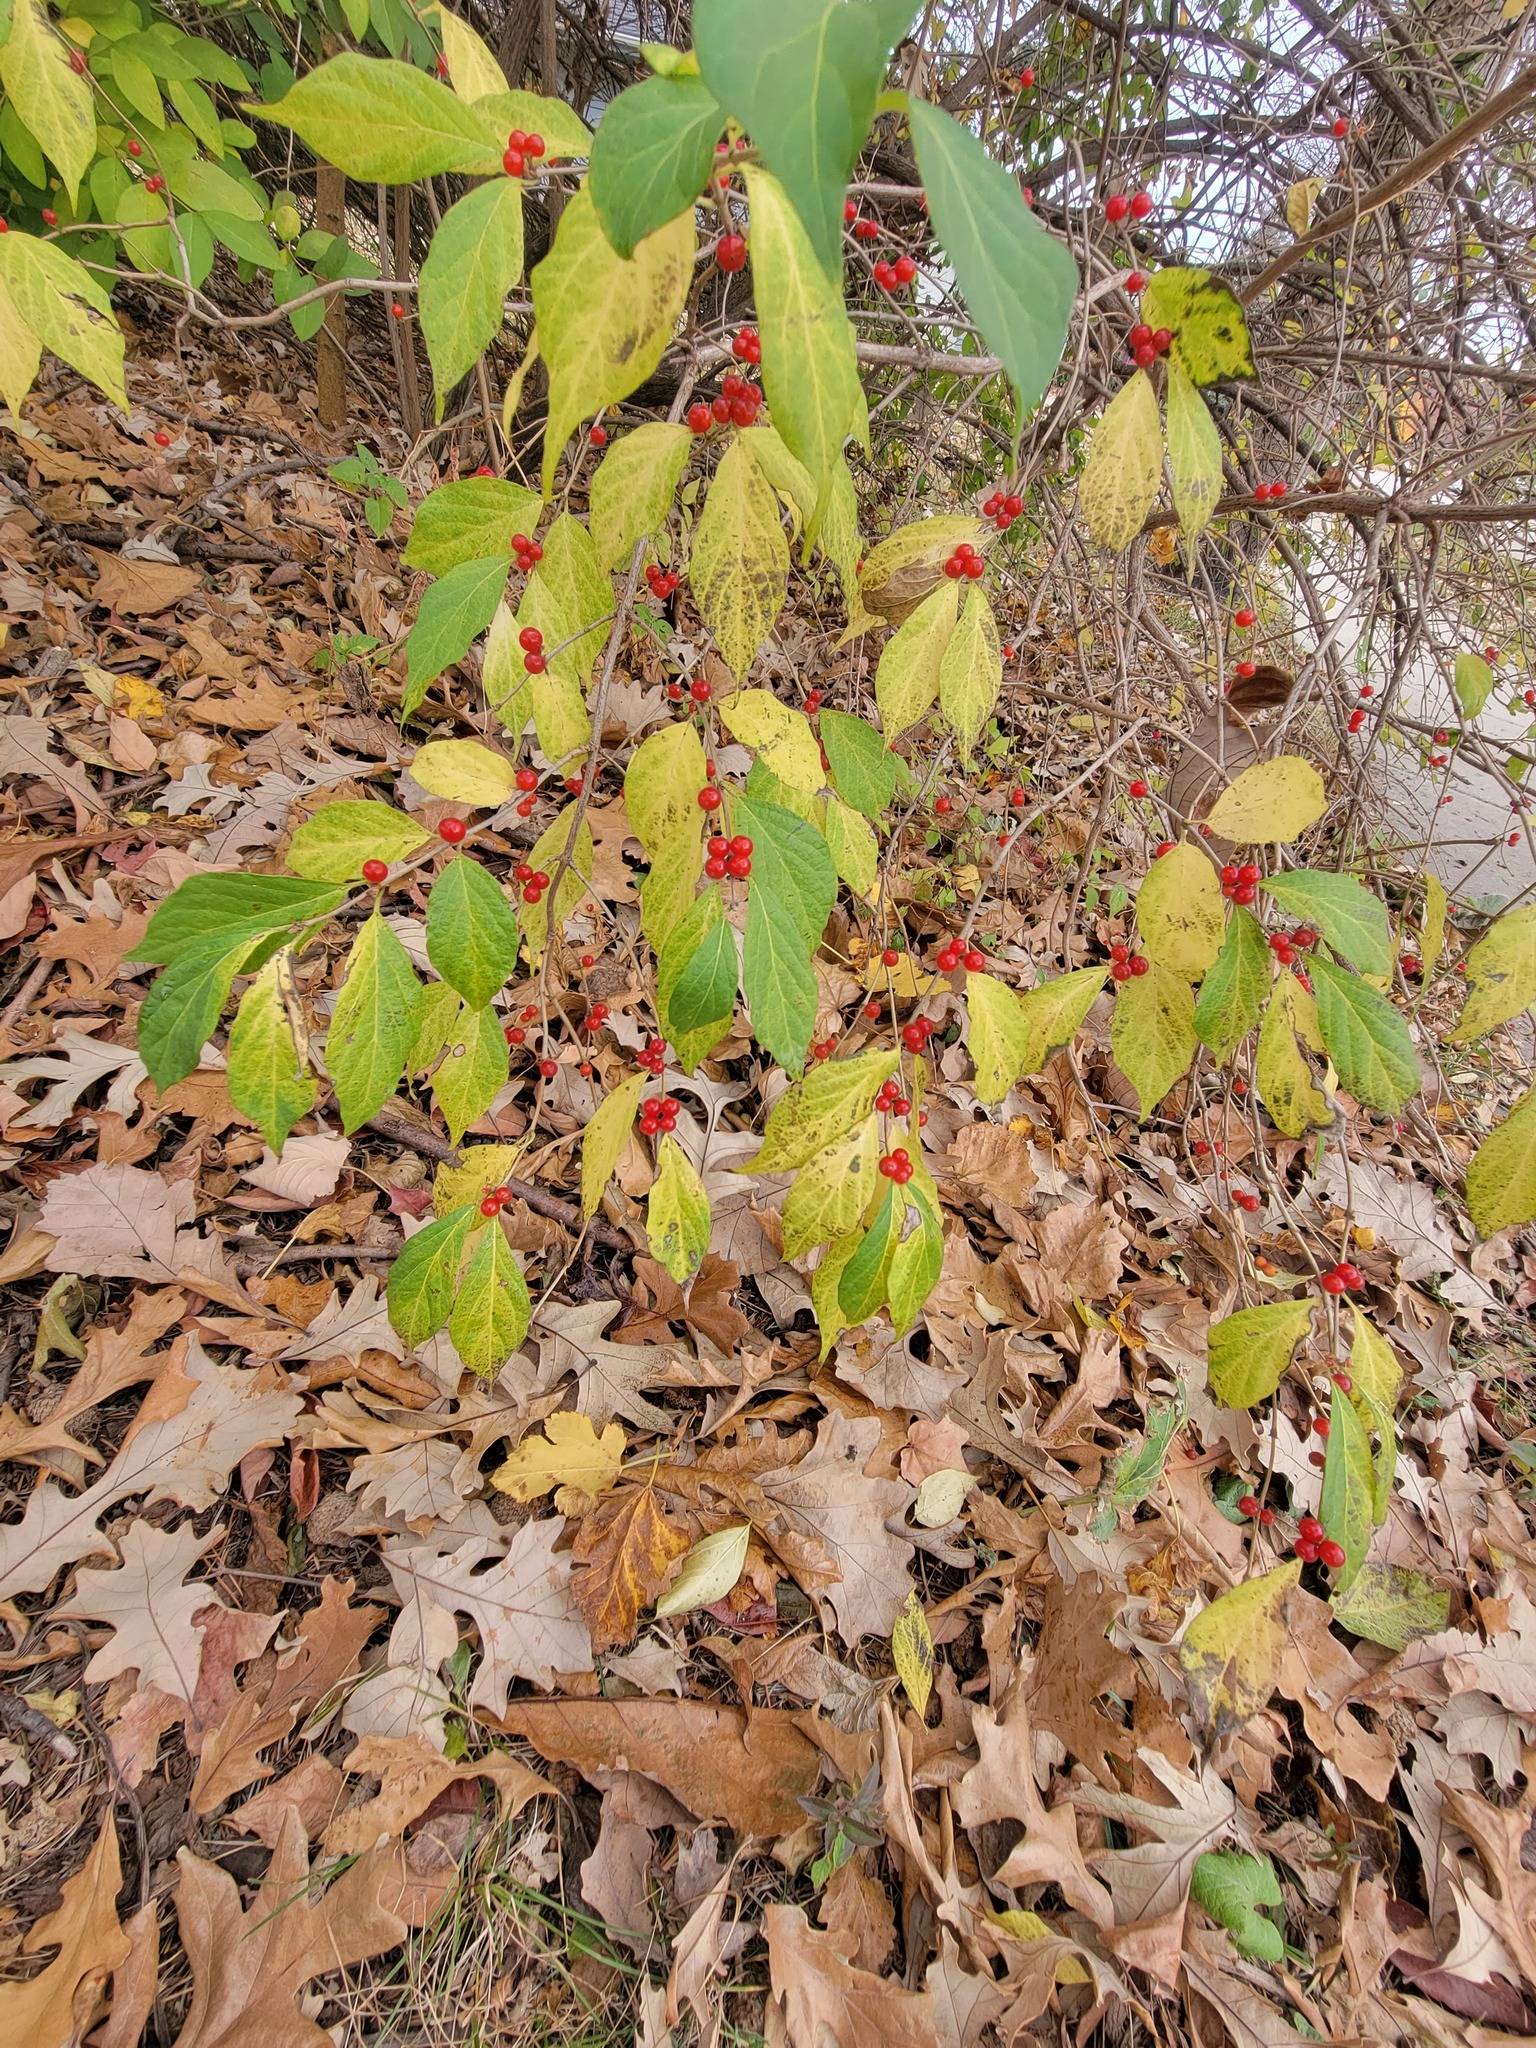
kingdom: Plantae
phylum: Tracheophyta
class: Magnoliopsida
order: Dipsacales
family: Caprifoliaceae
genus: Lonicera
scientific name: Lonicera maackii
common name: Amur honeysuckle
